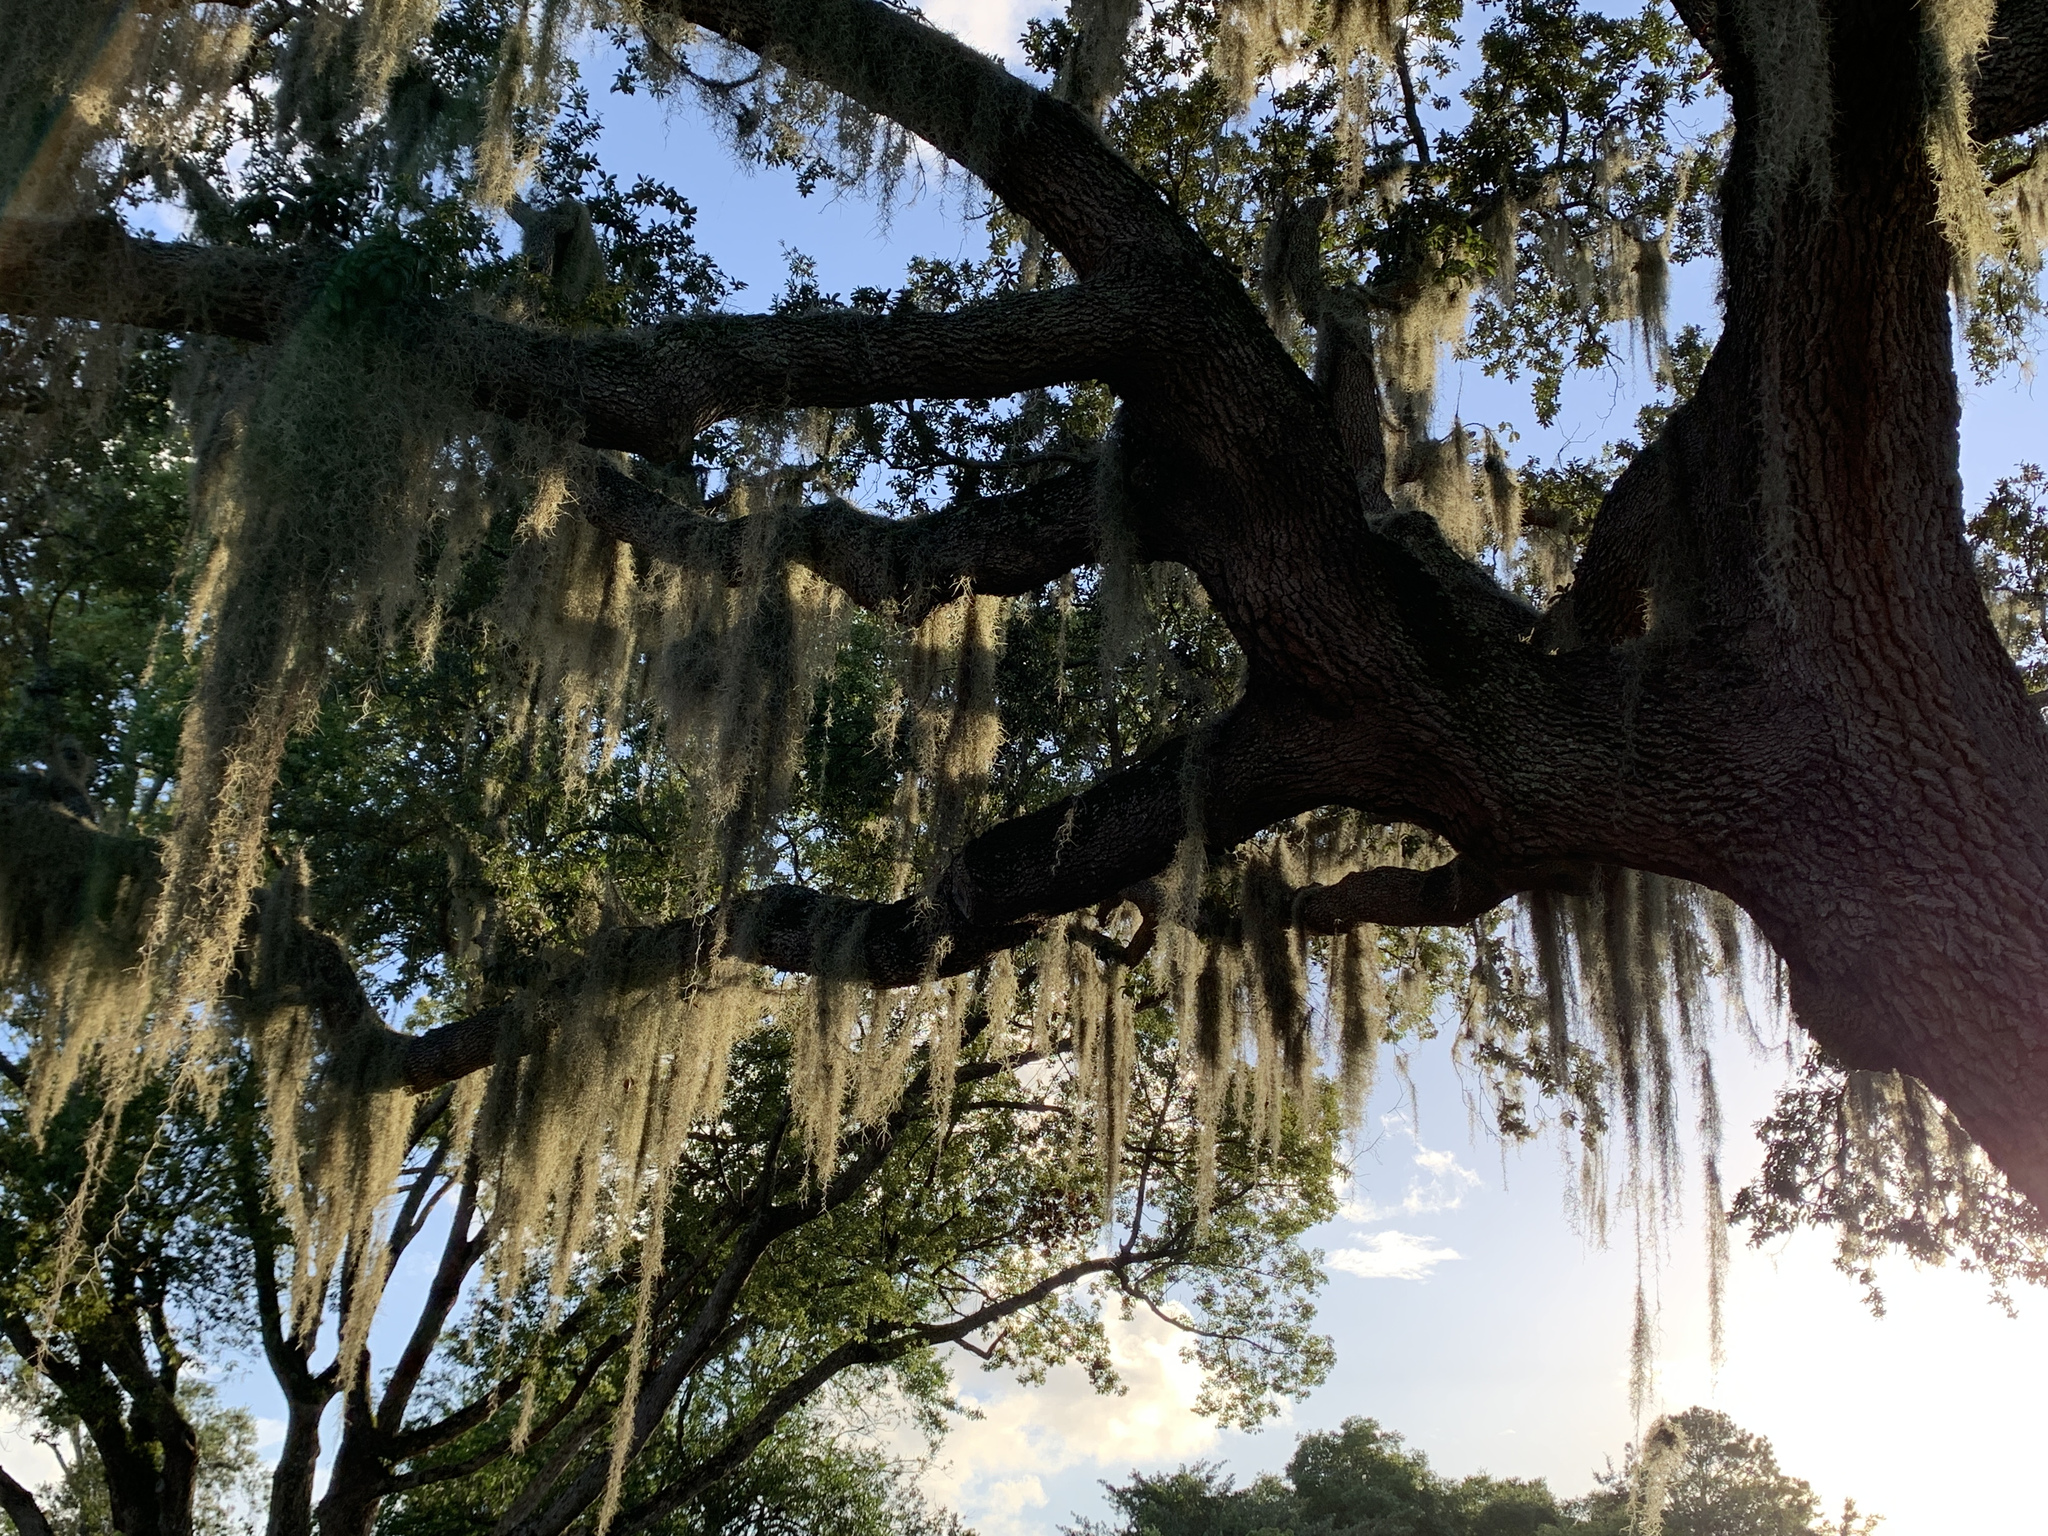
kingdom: Plantae
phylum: Tracheophyta
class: Liliopsida
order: Poales
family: Bromeliaceae
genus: Tillandsia
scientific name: Tillandsia usneoides
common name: Spanish moss
